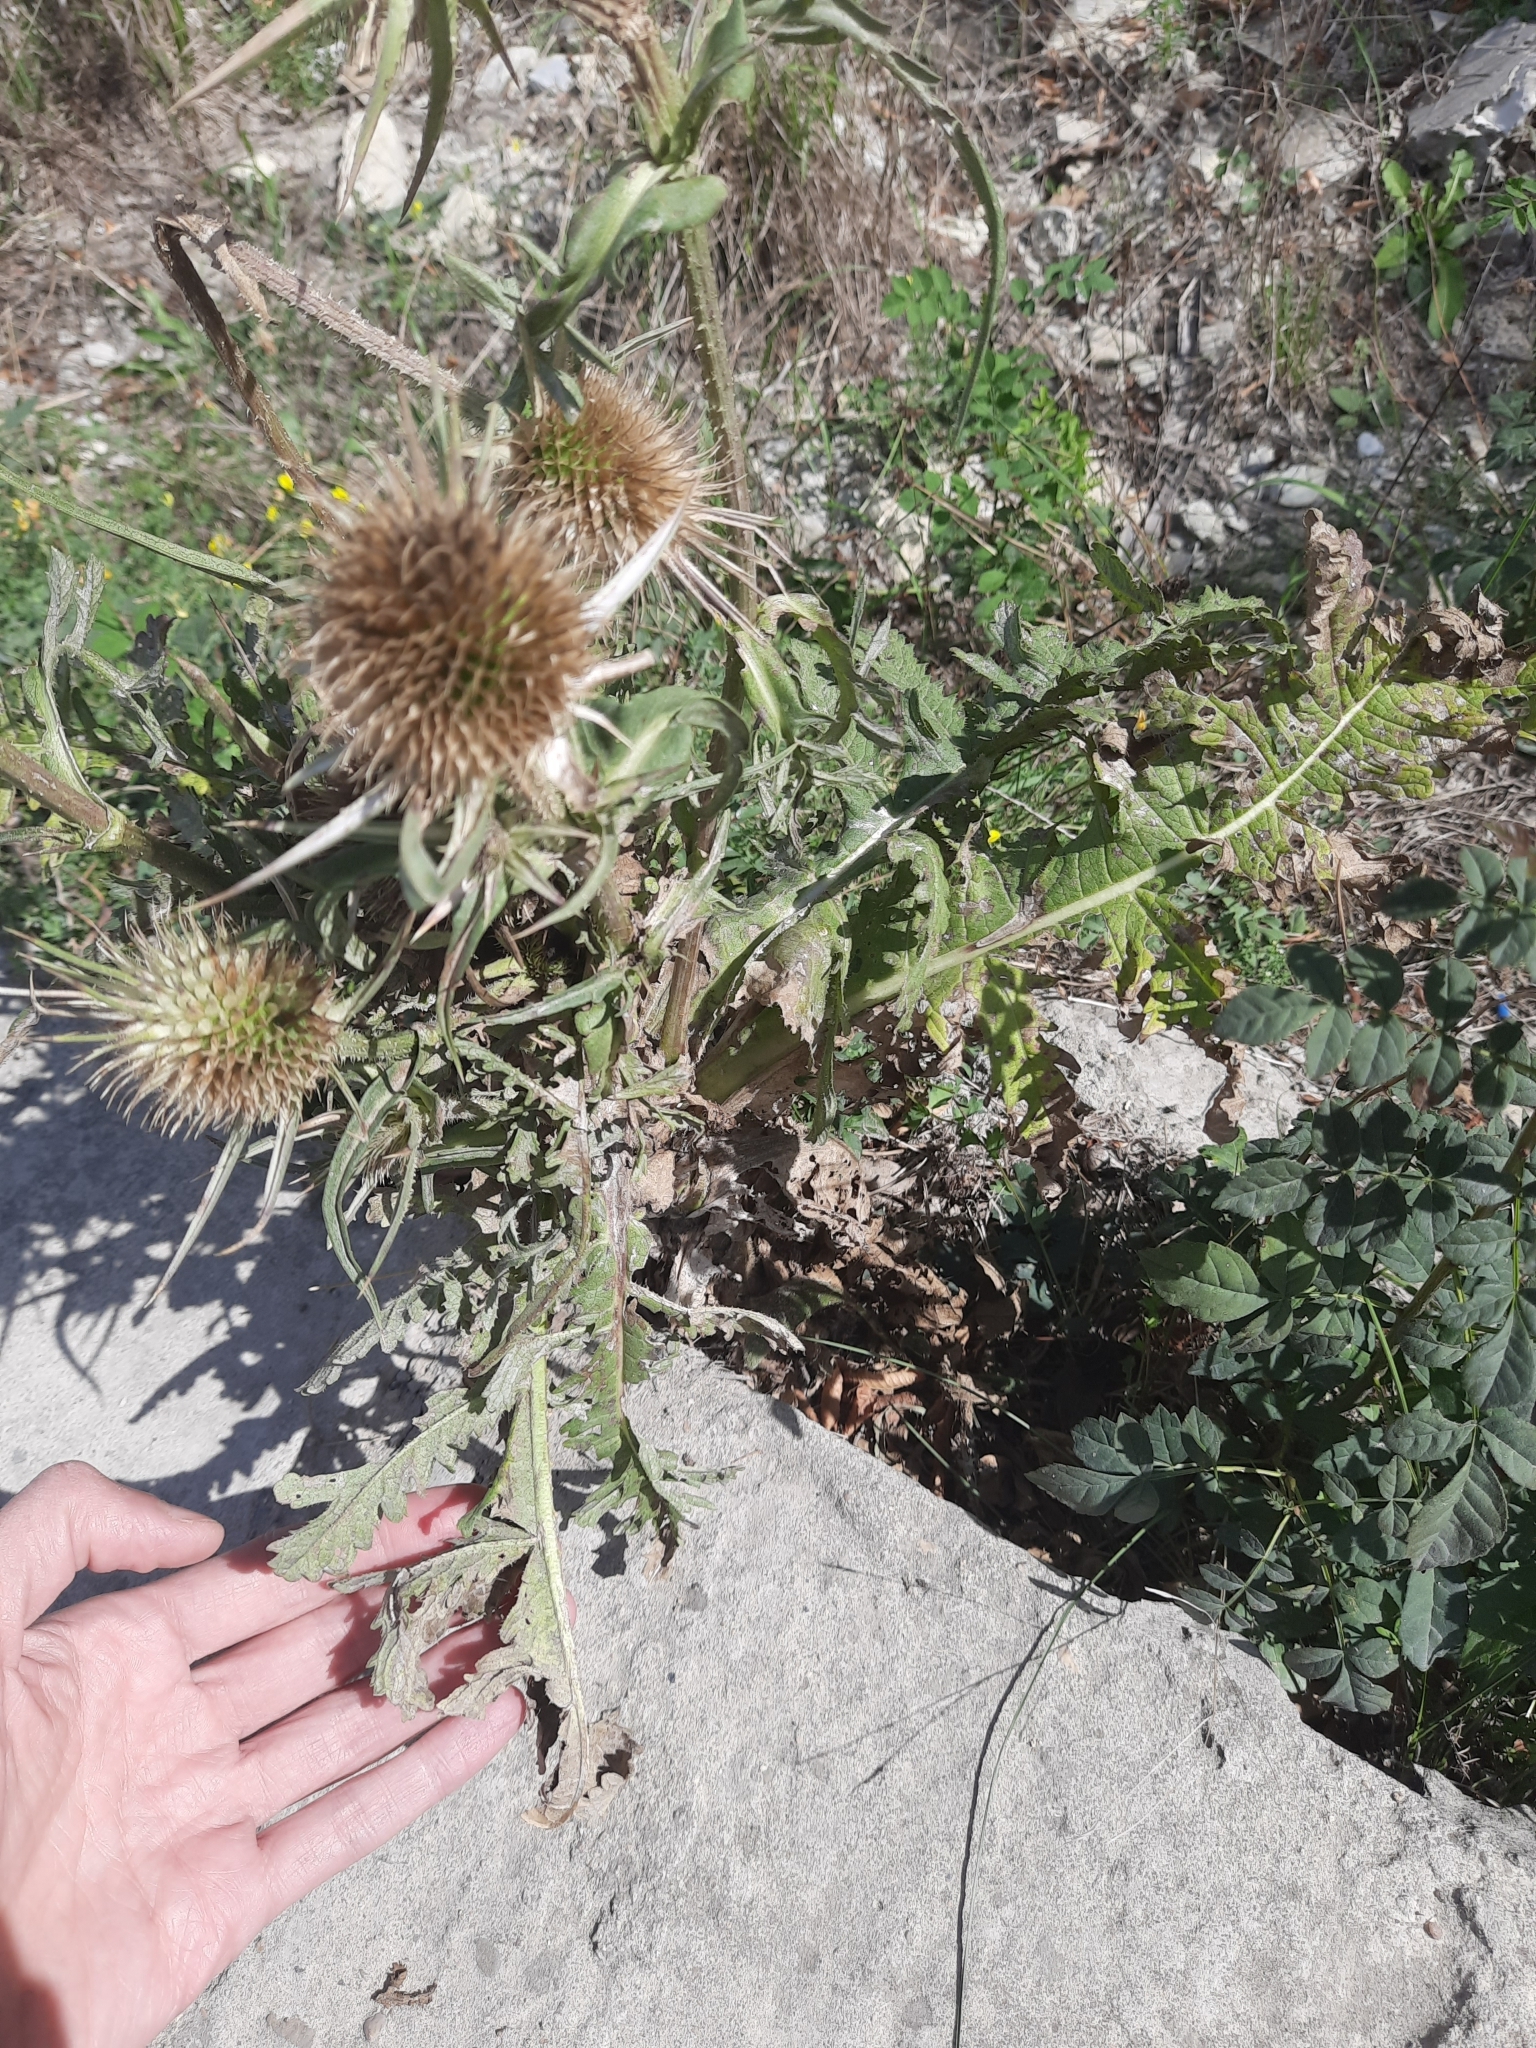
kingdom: Plantae
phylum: Tracheophyta
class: Magnoliopsida
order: Dipsacales
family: Caprifoliaceae
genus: Dipsacus
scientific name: Dipsacus laciniatus
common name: Cut-leaved teasel
